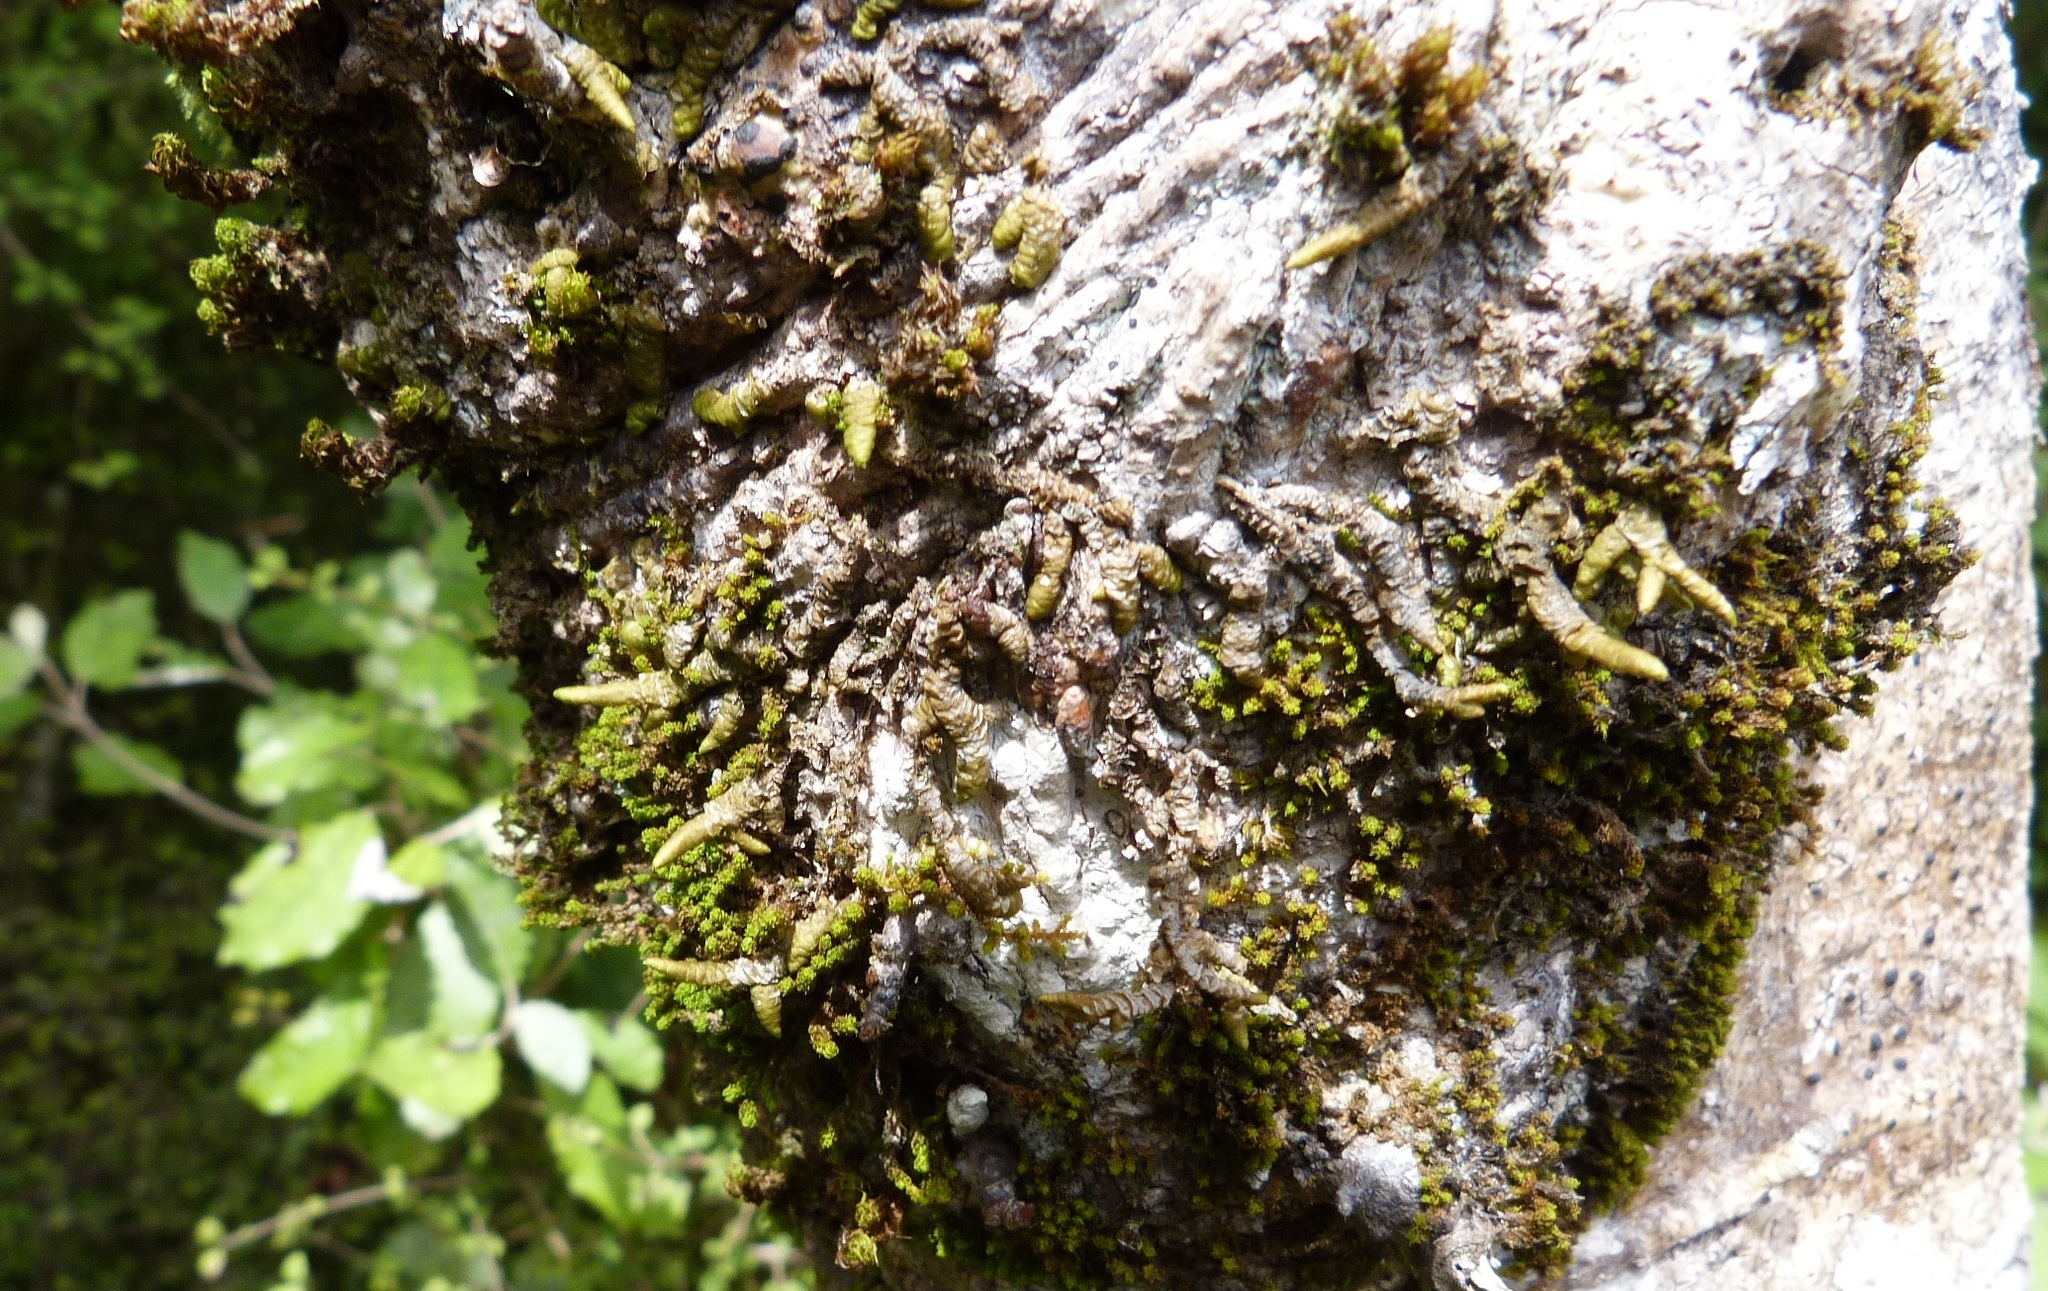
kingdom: Plantae
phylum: Marchantiophyta
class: Jungermanniopsida
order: Porellales
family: Porellaceae
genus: Porella
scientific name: Porella elegantula
